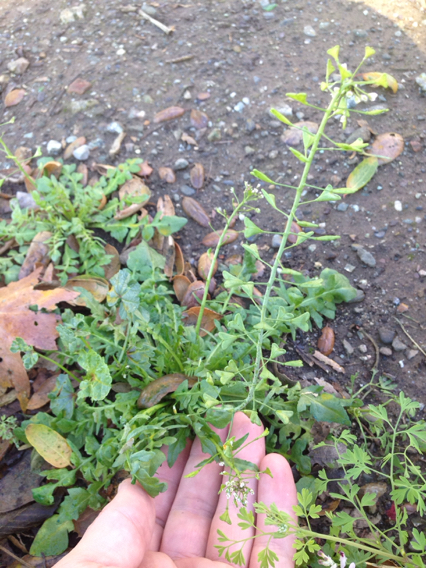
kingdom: Plantae
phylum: Tracheophyta
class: Magnoliopsida
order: Brassicales
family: Brassicaceae
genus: Capsella
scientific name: Capsella bursa-pastoris
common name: Shepherd's purse
